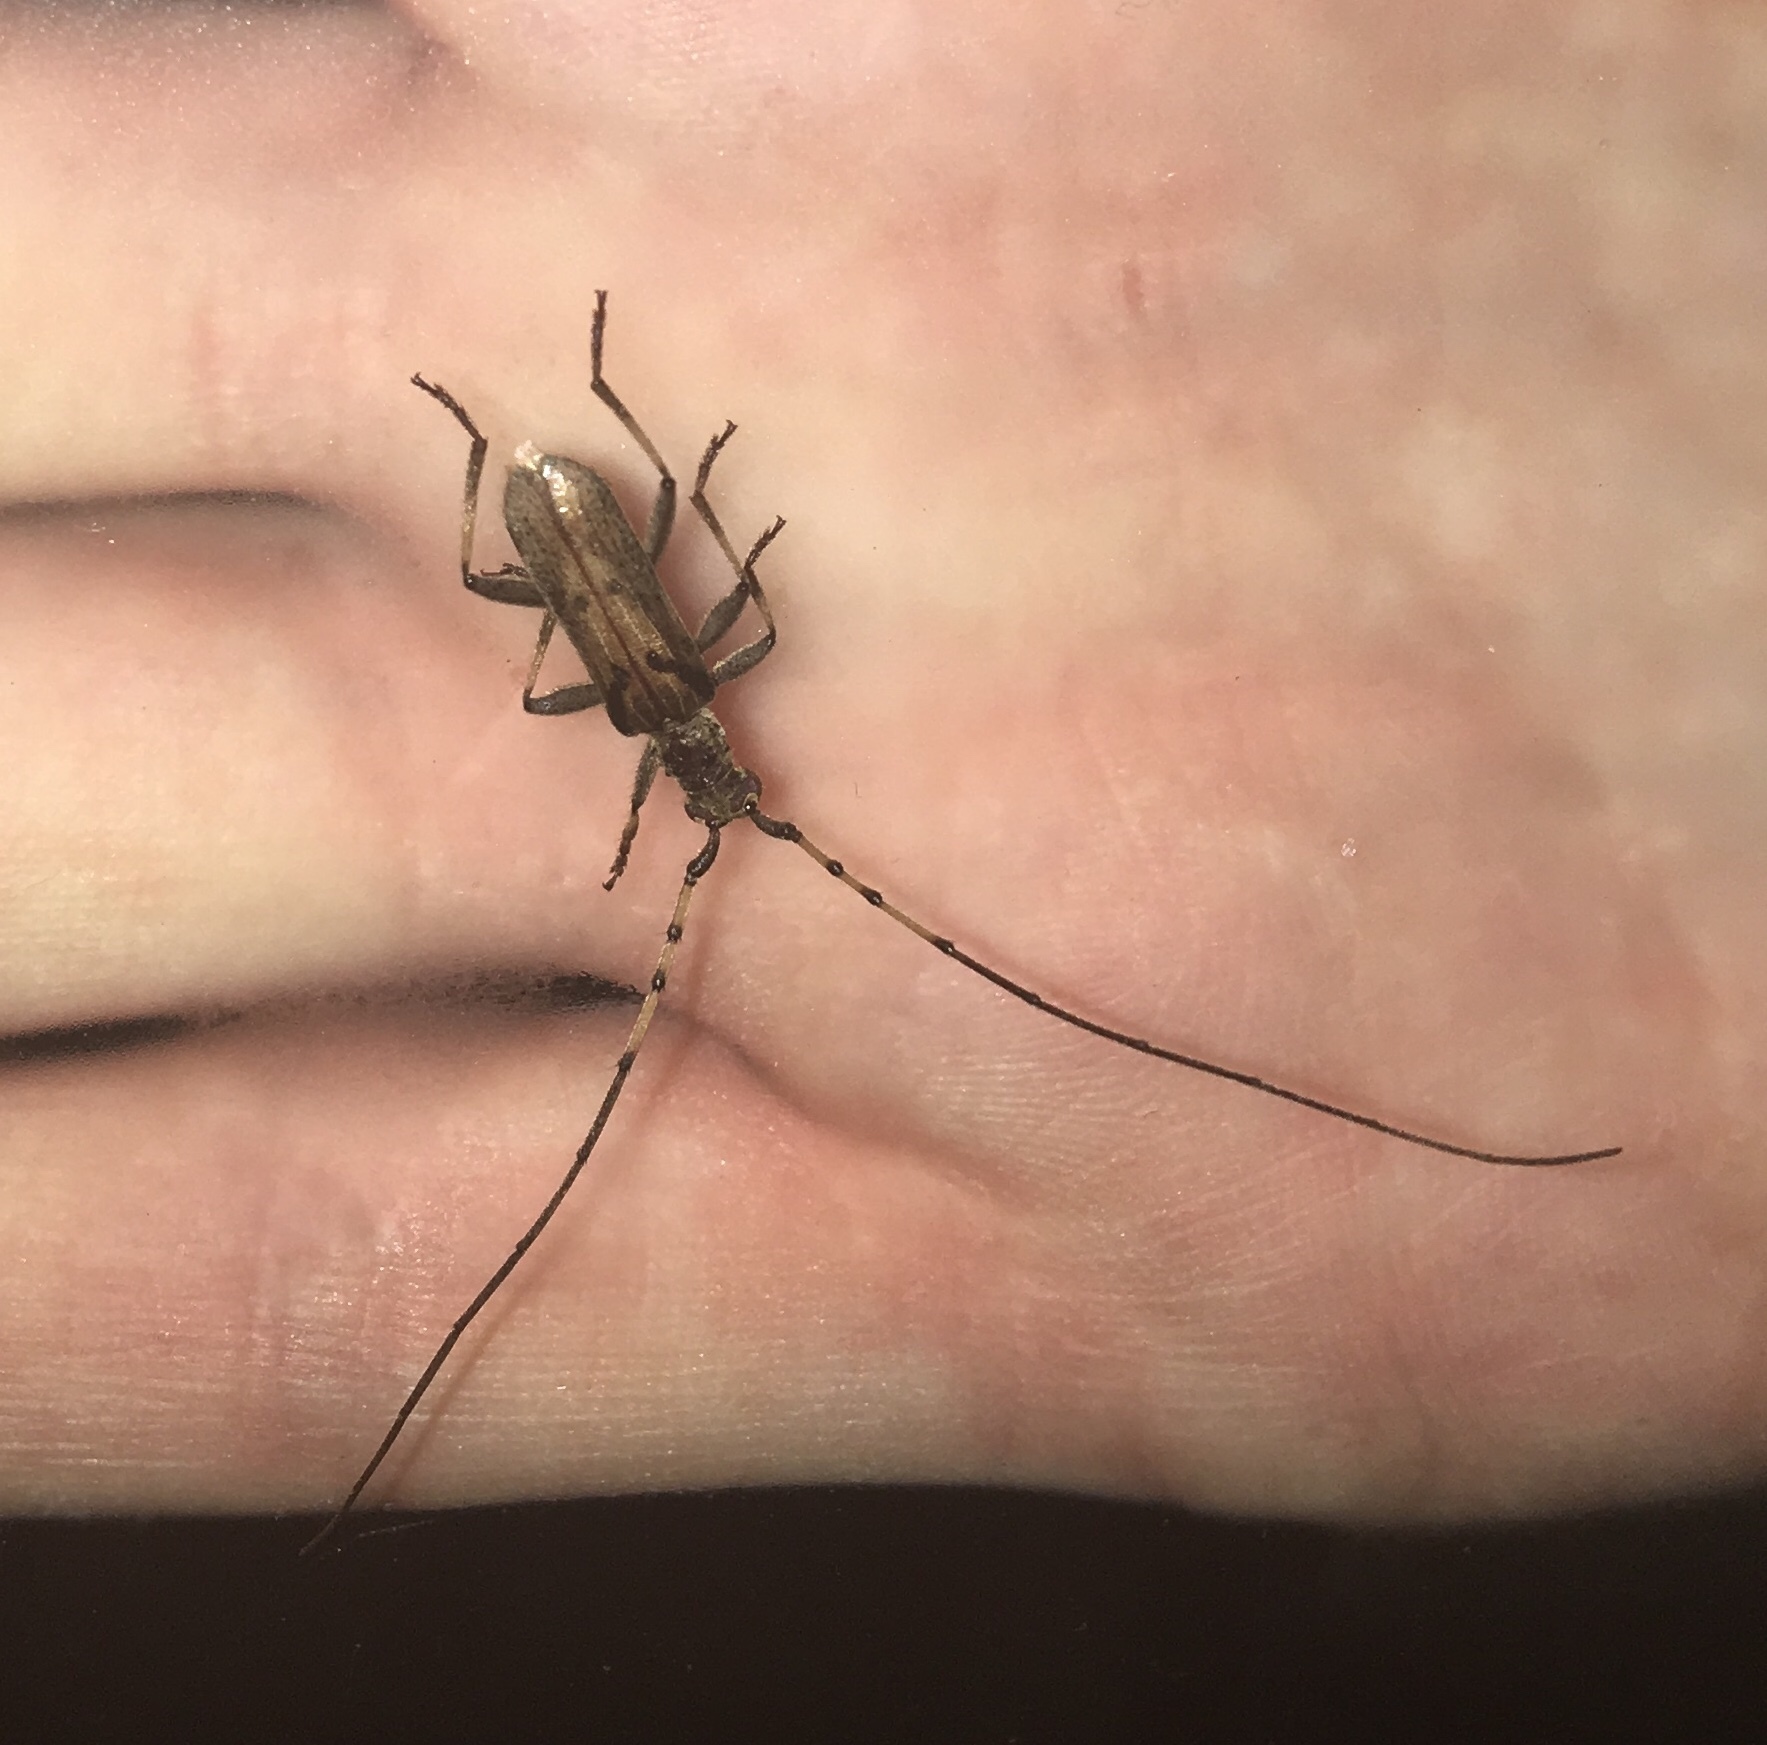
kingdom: Animalia
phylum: Arthropoda
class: Insecta
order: Coleoptera
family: Cerambycidae
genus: Didymocantha
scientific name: Didymocantha obliqua
